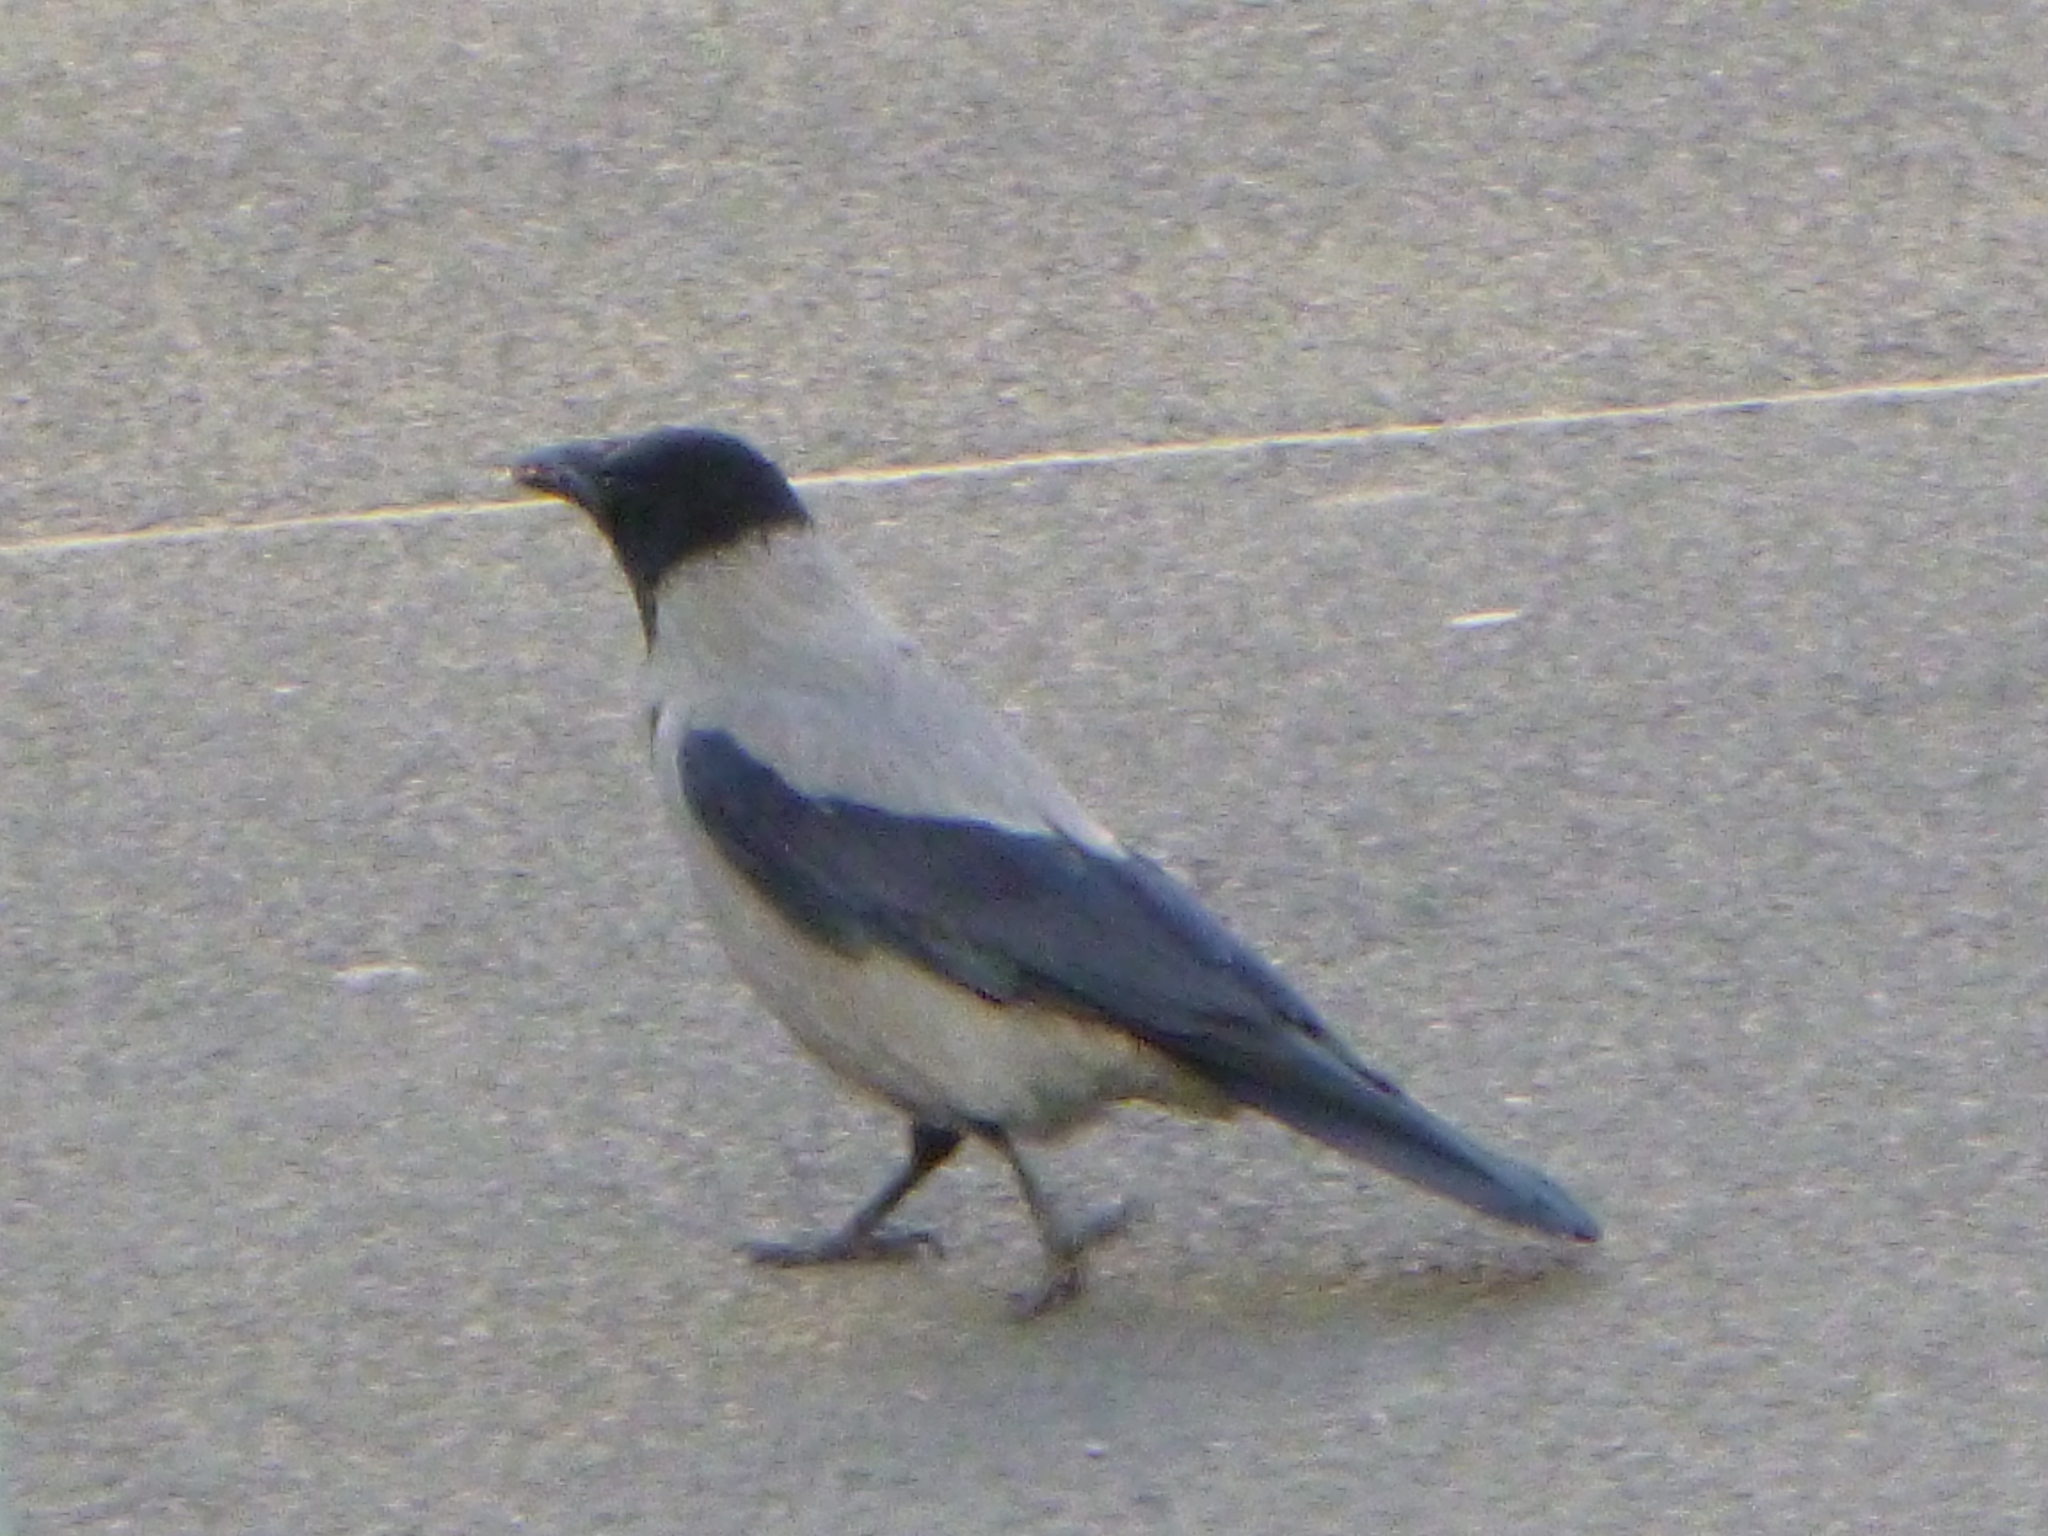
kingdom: Animalia
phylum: Chordata
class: Aves
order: Passeriformes
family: Corvidae
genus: Corvus
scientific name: Corvus cornix
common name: Hooded crow
